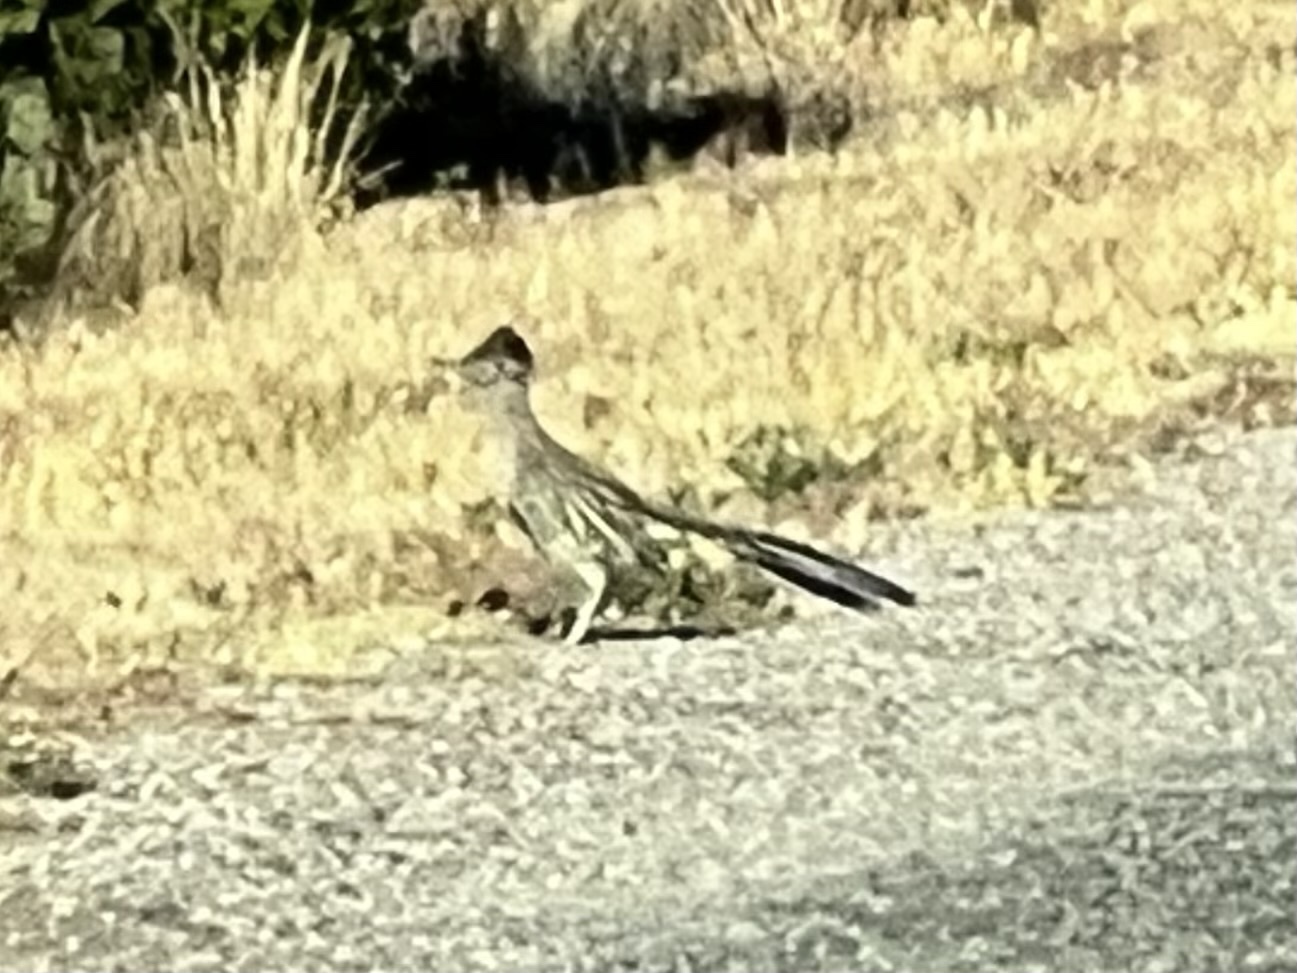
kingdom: Animalia
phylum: Chordata
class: Aves
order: Cuculiformes
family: Cuculidae
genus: Geococcyx
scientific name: Geococcyx californianus
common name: Greater roadrunner
